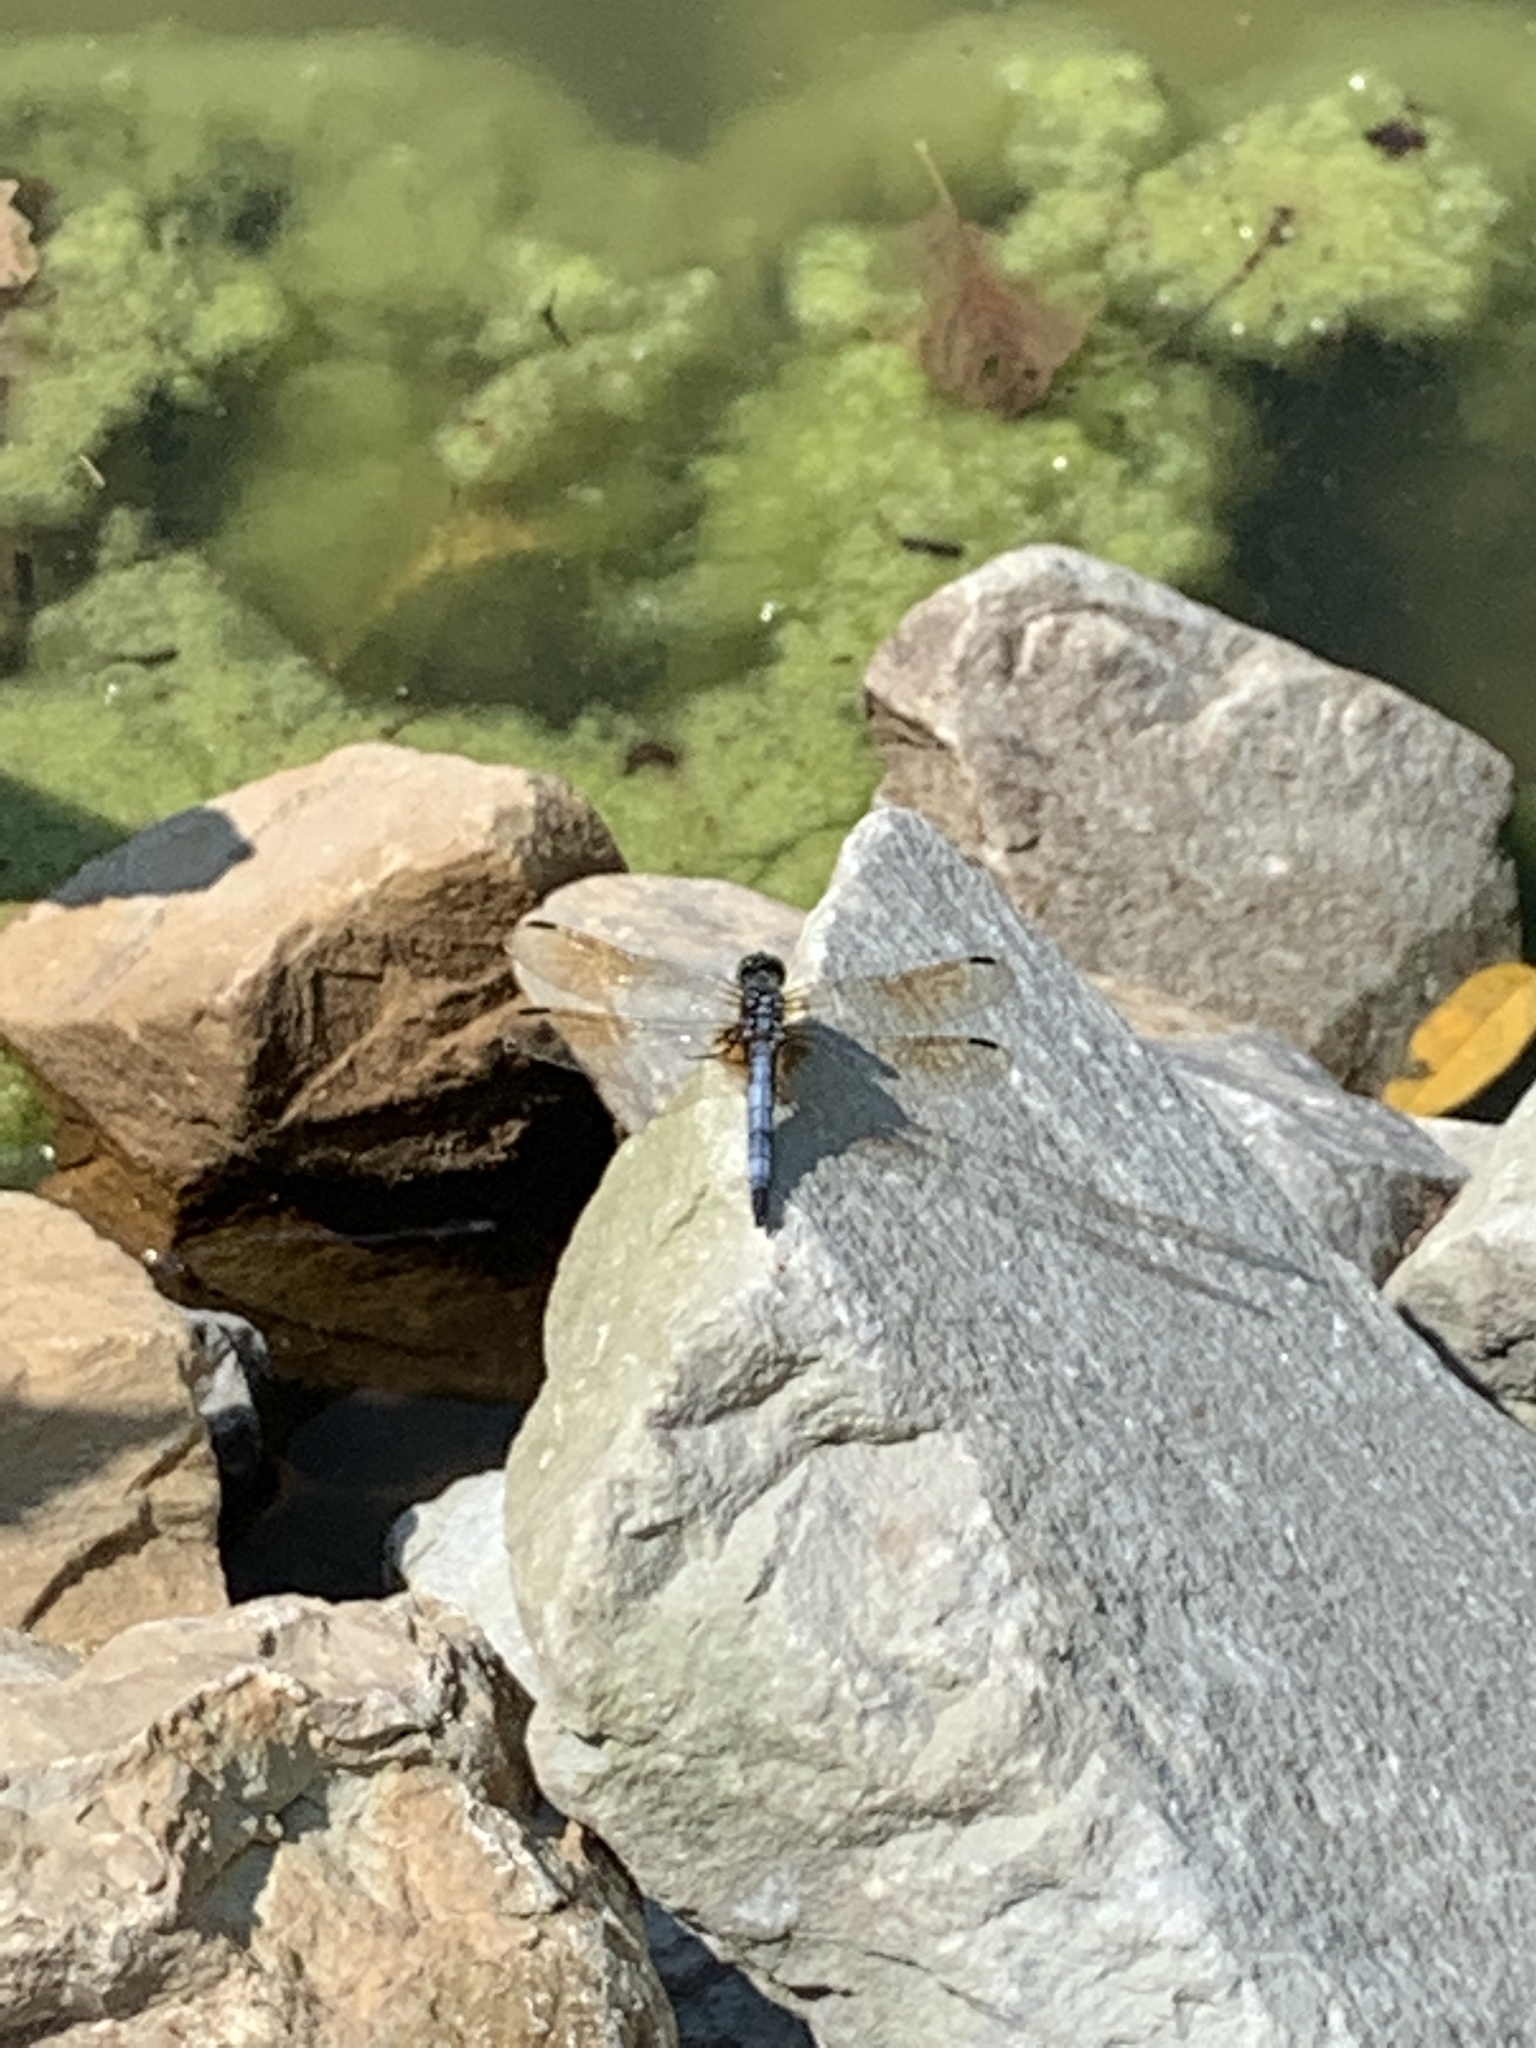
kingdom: Animalia
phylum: Arthropoda
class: Insecta
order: Odonata
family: Libellulidae
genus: Pachydiplax
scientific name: Pachydiplax longipennis
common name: Blue dasher
